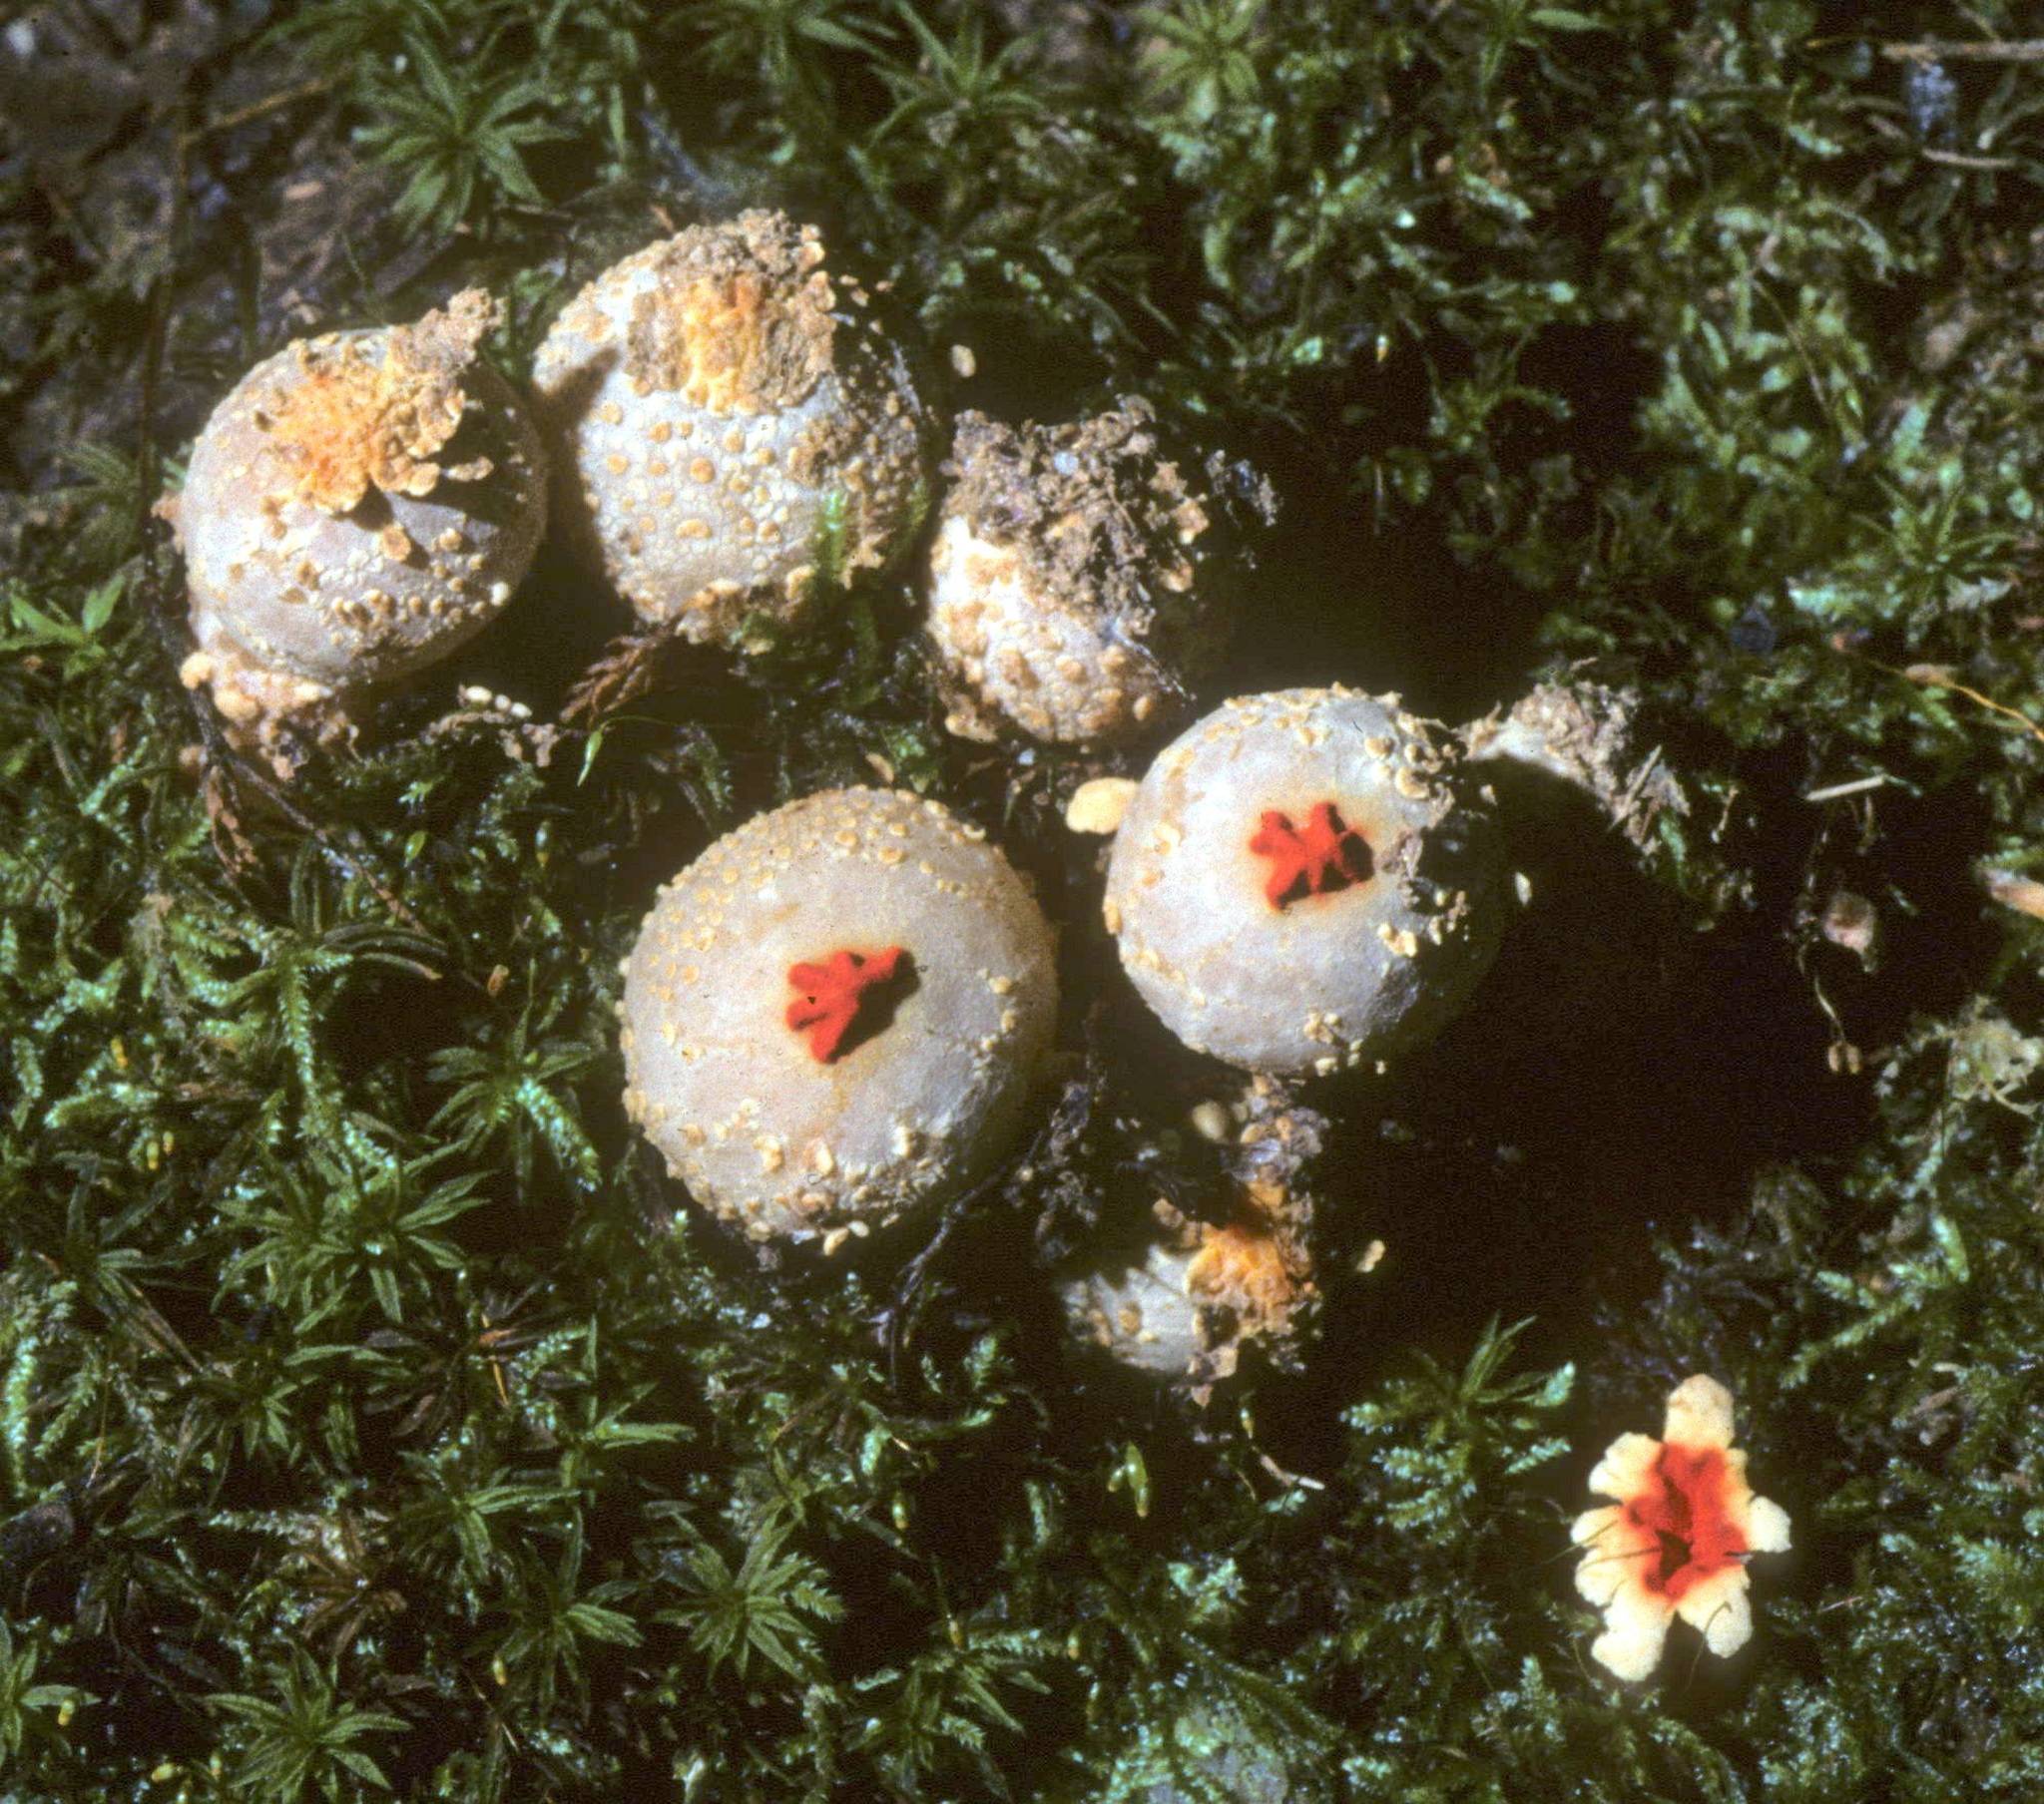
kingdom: Fungi
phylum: Basidiomycota
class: Agaricomycetes
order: Boletales
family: Calostomataceae
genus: Calostoma
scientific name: Calostoma ravenelii
